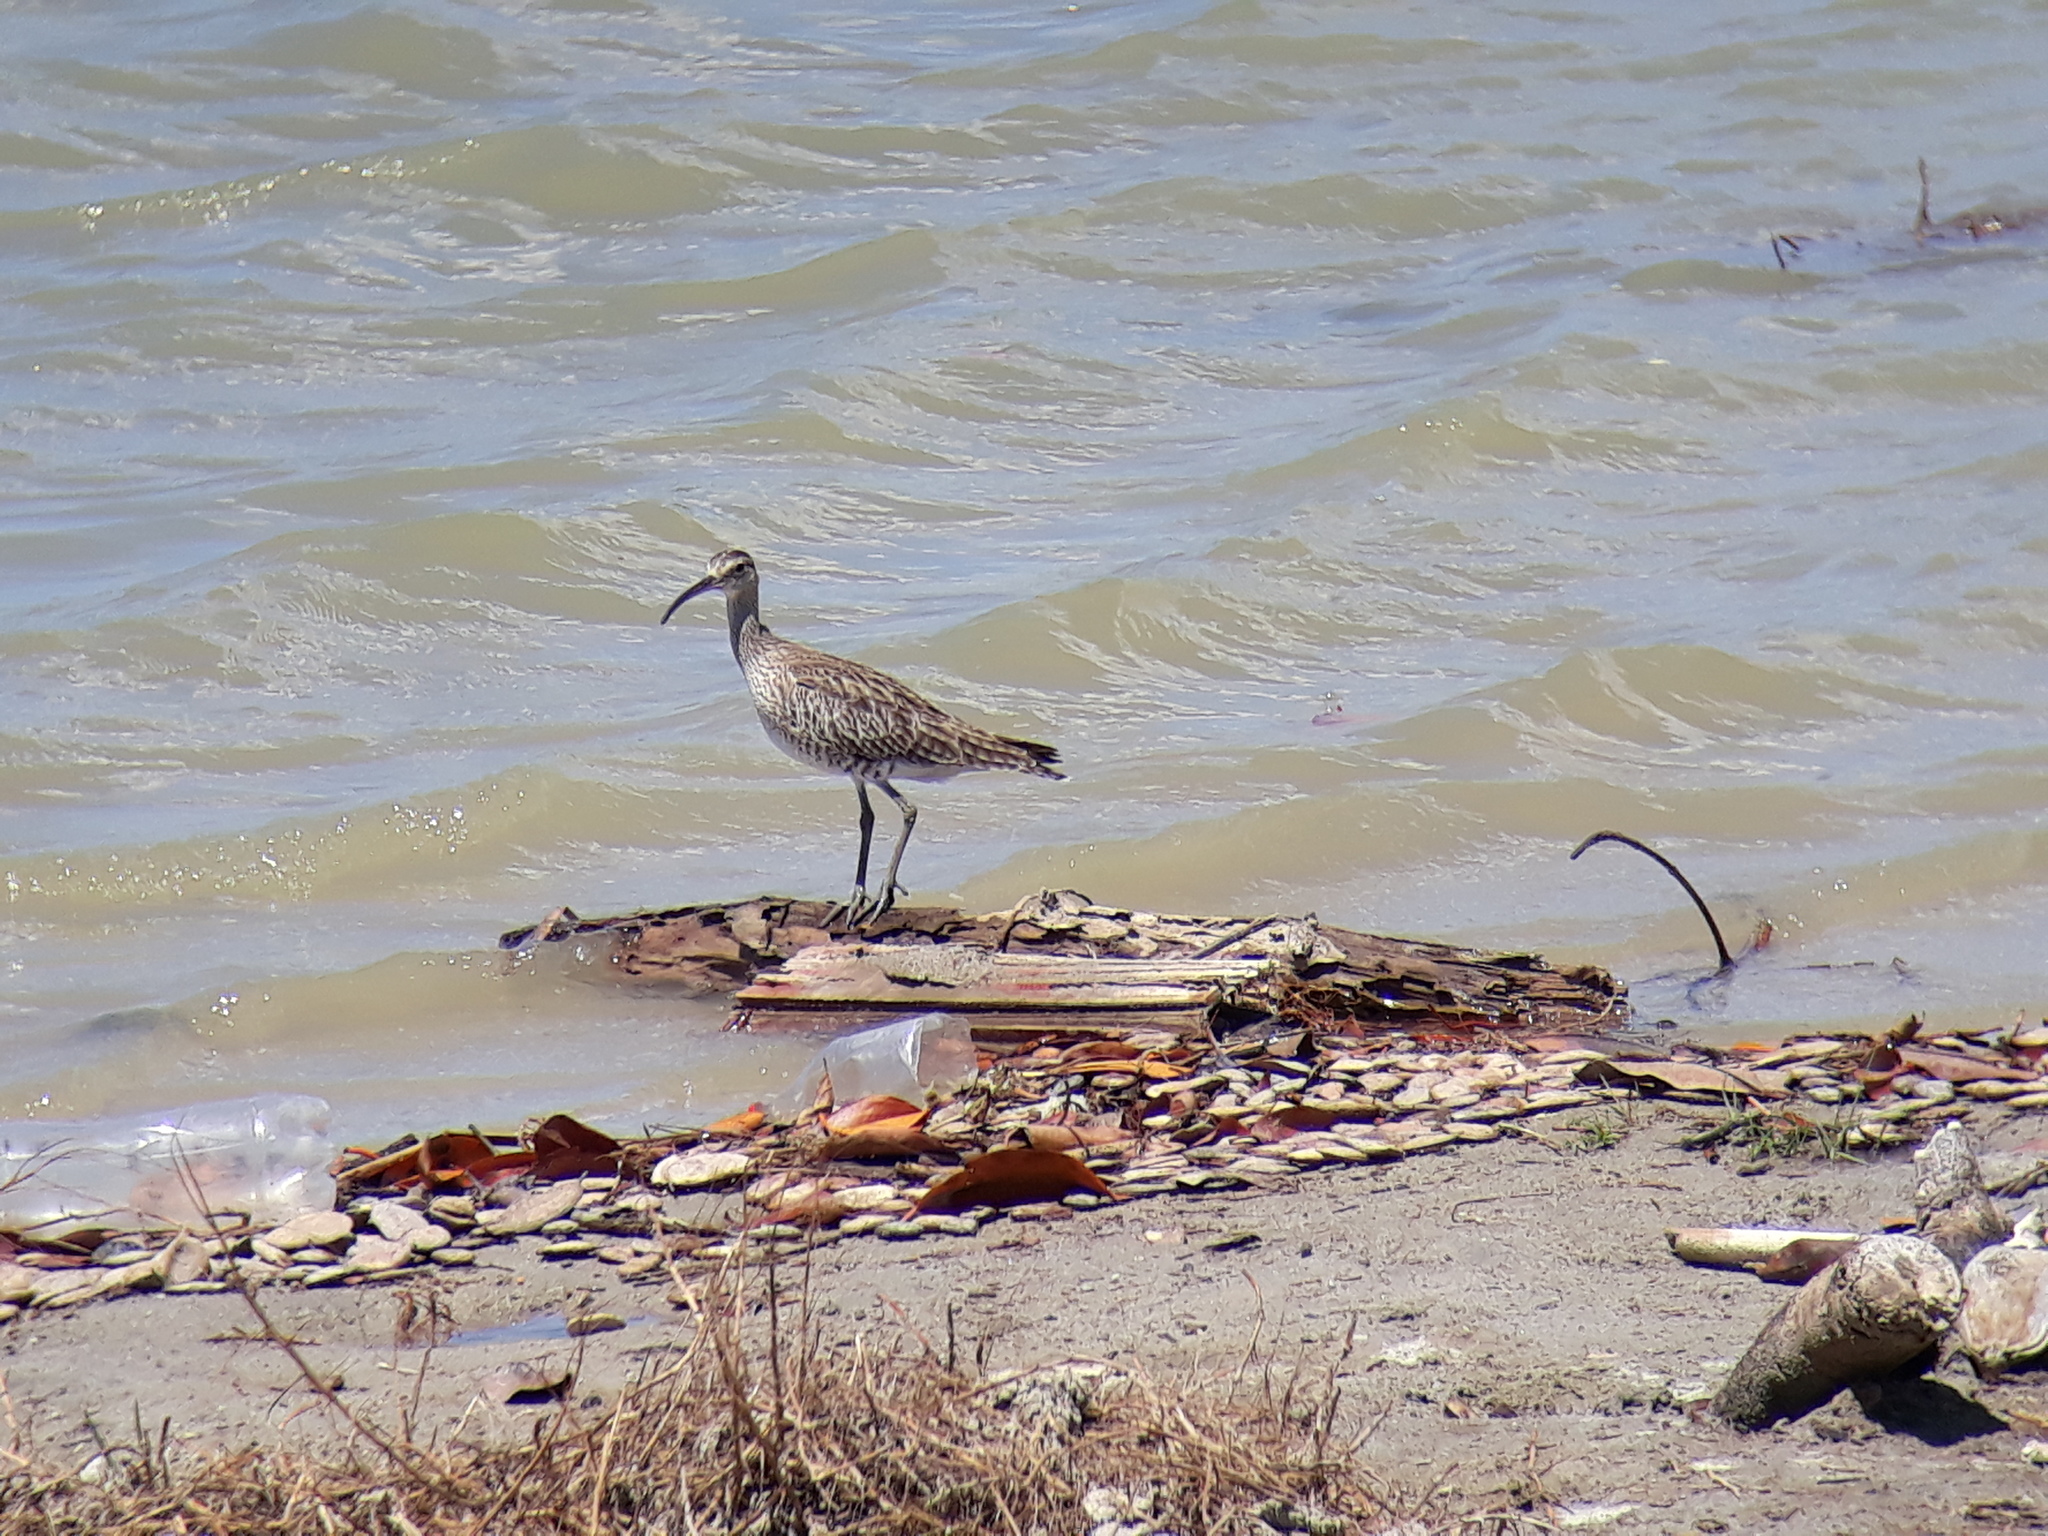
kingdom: Animalia
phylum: Chordata
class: Aves
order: Charadriiformes
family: Scolopacidae
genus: Numenius
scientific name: Numenius phaeopus
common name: Whimbrel
